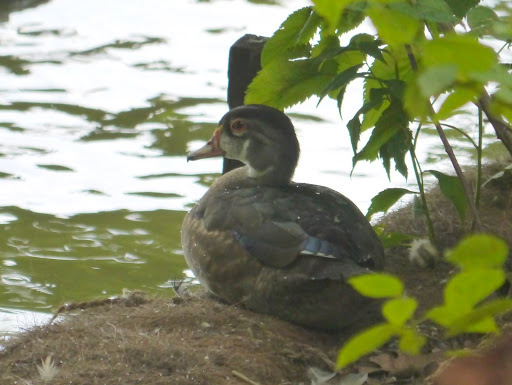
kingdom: Animalia
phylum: Chordata
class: Aves
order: Anseriformes
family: Anatidae
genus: Aix
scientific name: Aix sponsa
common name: Wood duck
